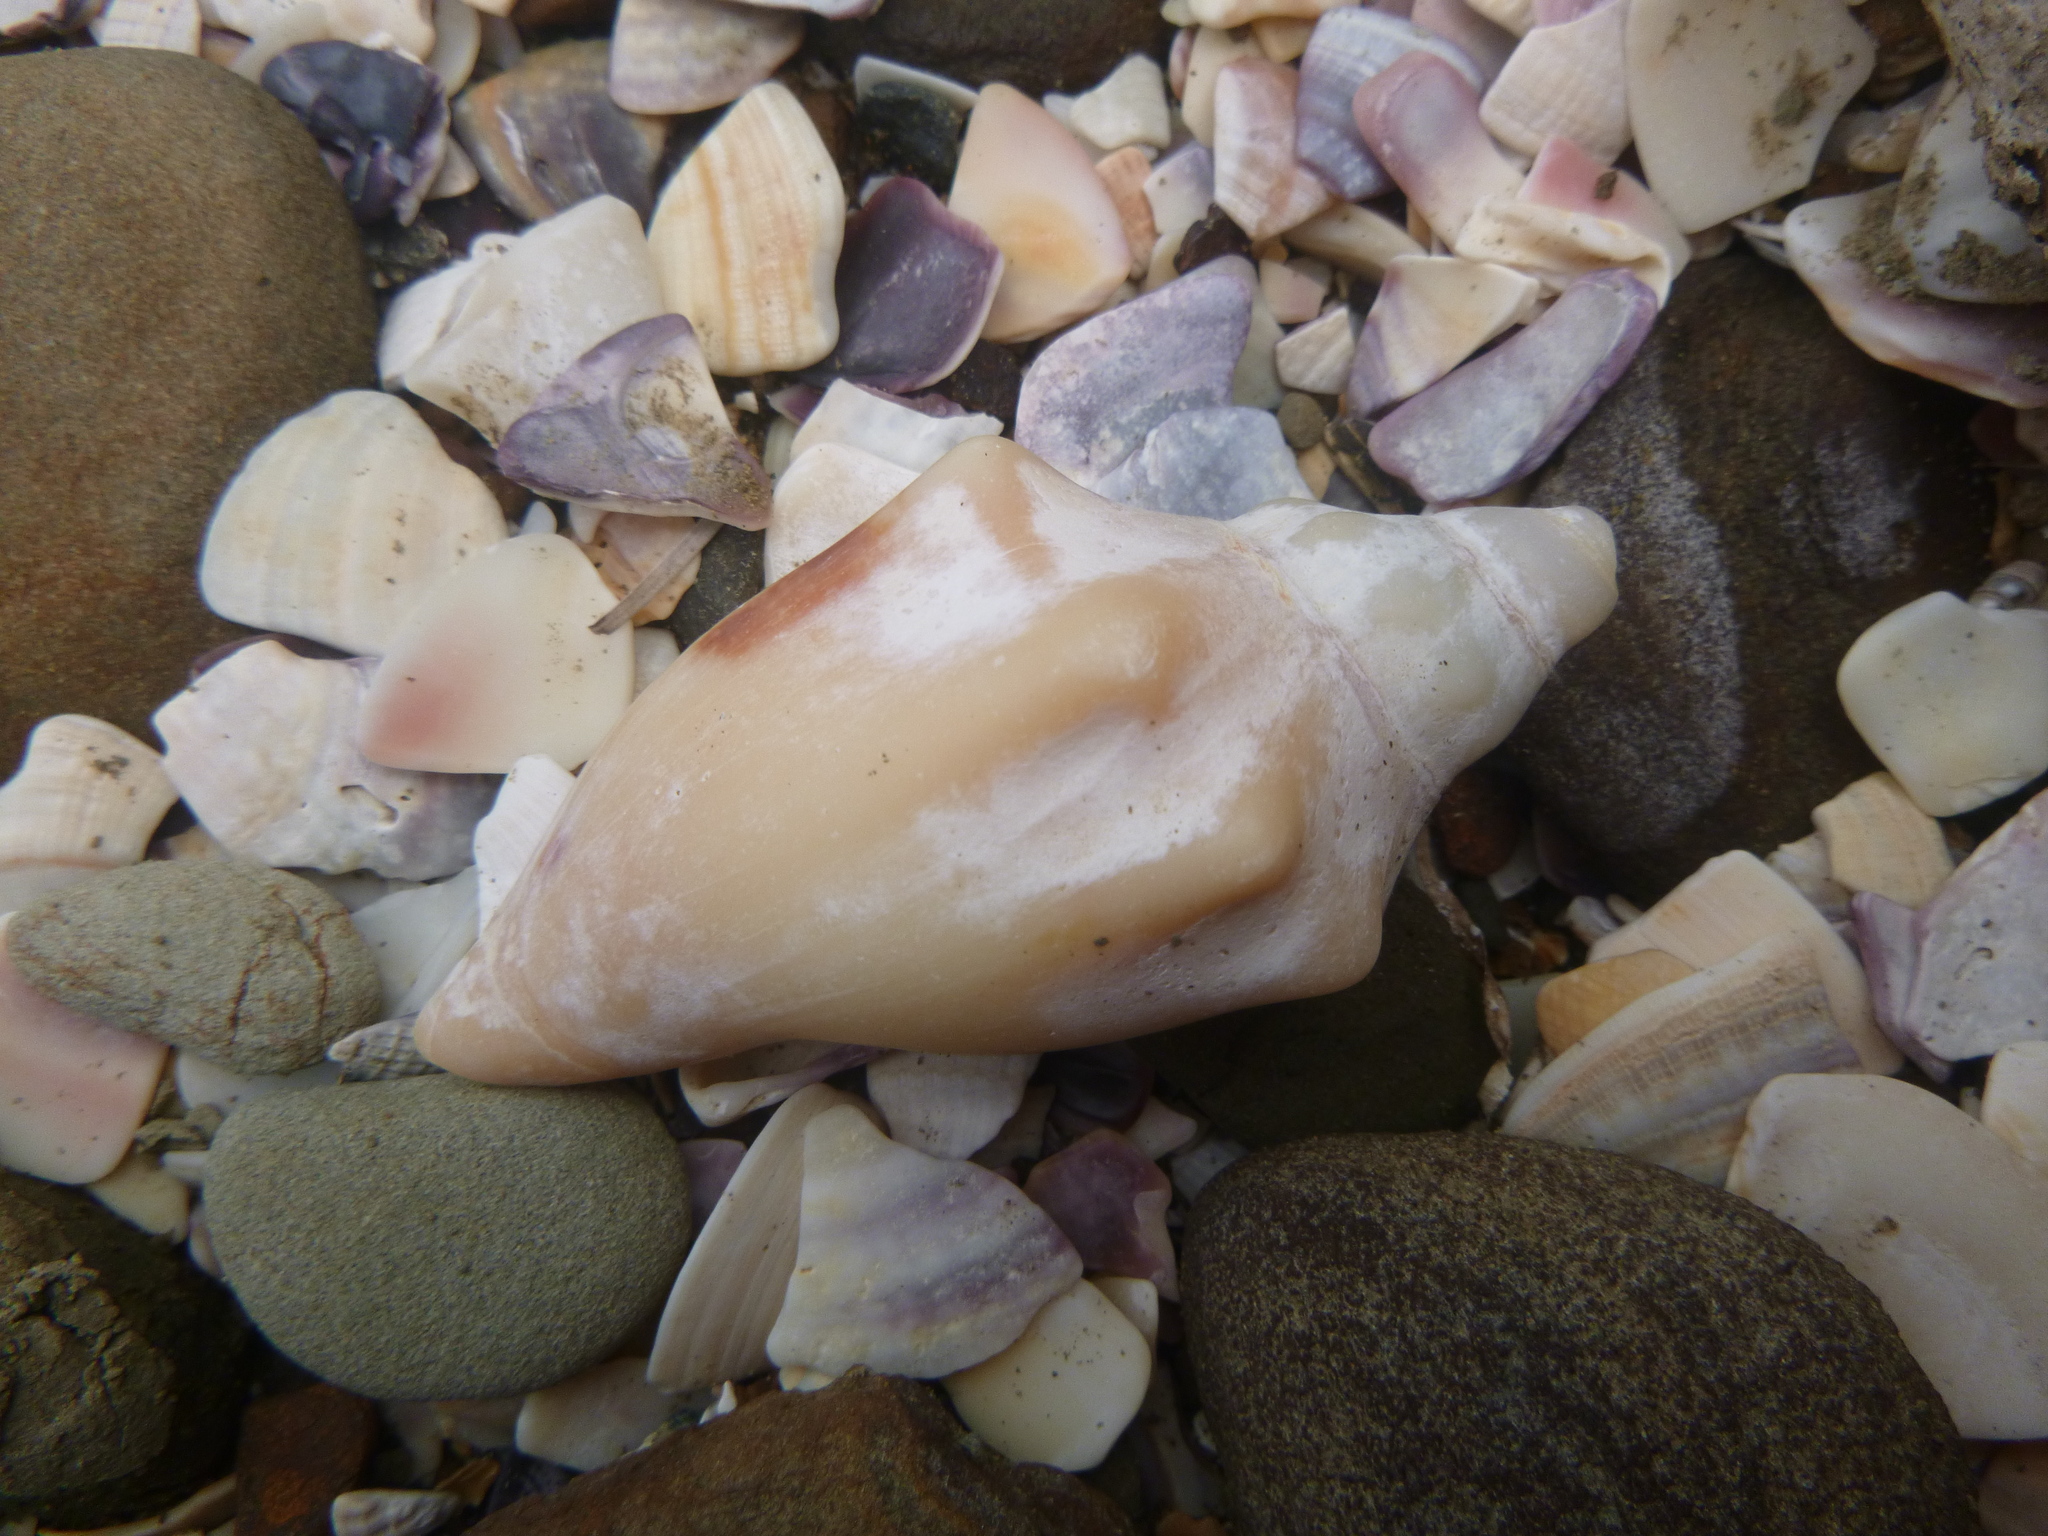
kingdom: Animalia
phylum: Mollusca
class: Gastropoda
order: Neogastropoda
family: Volutidae
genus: Alcithoe
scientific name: Alcithoe arabica
